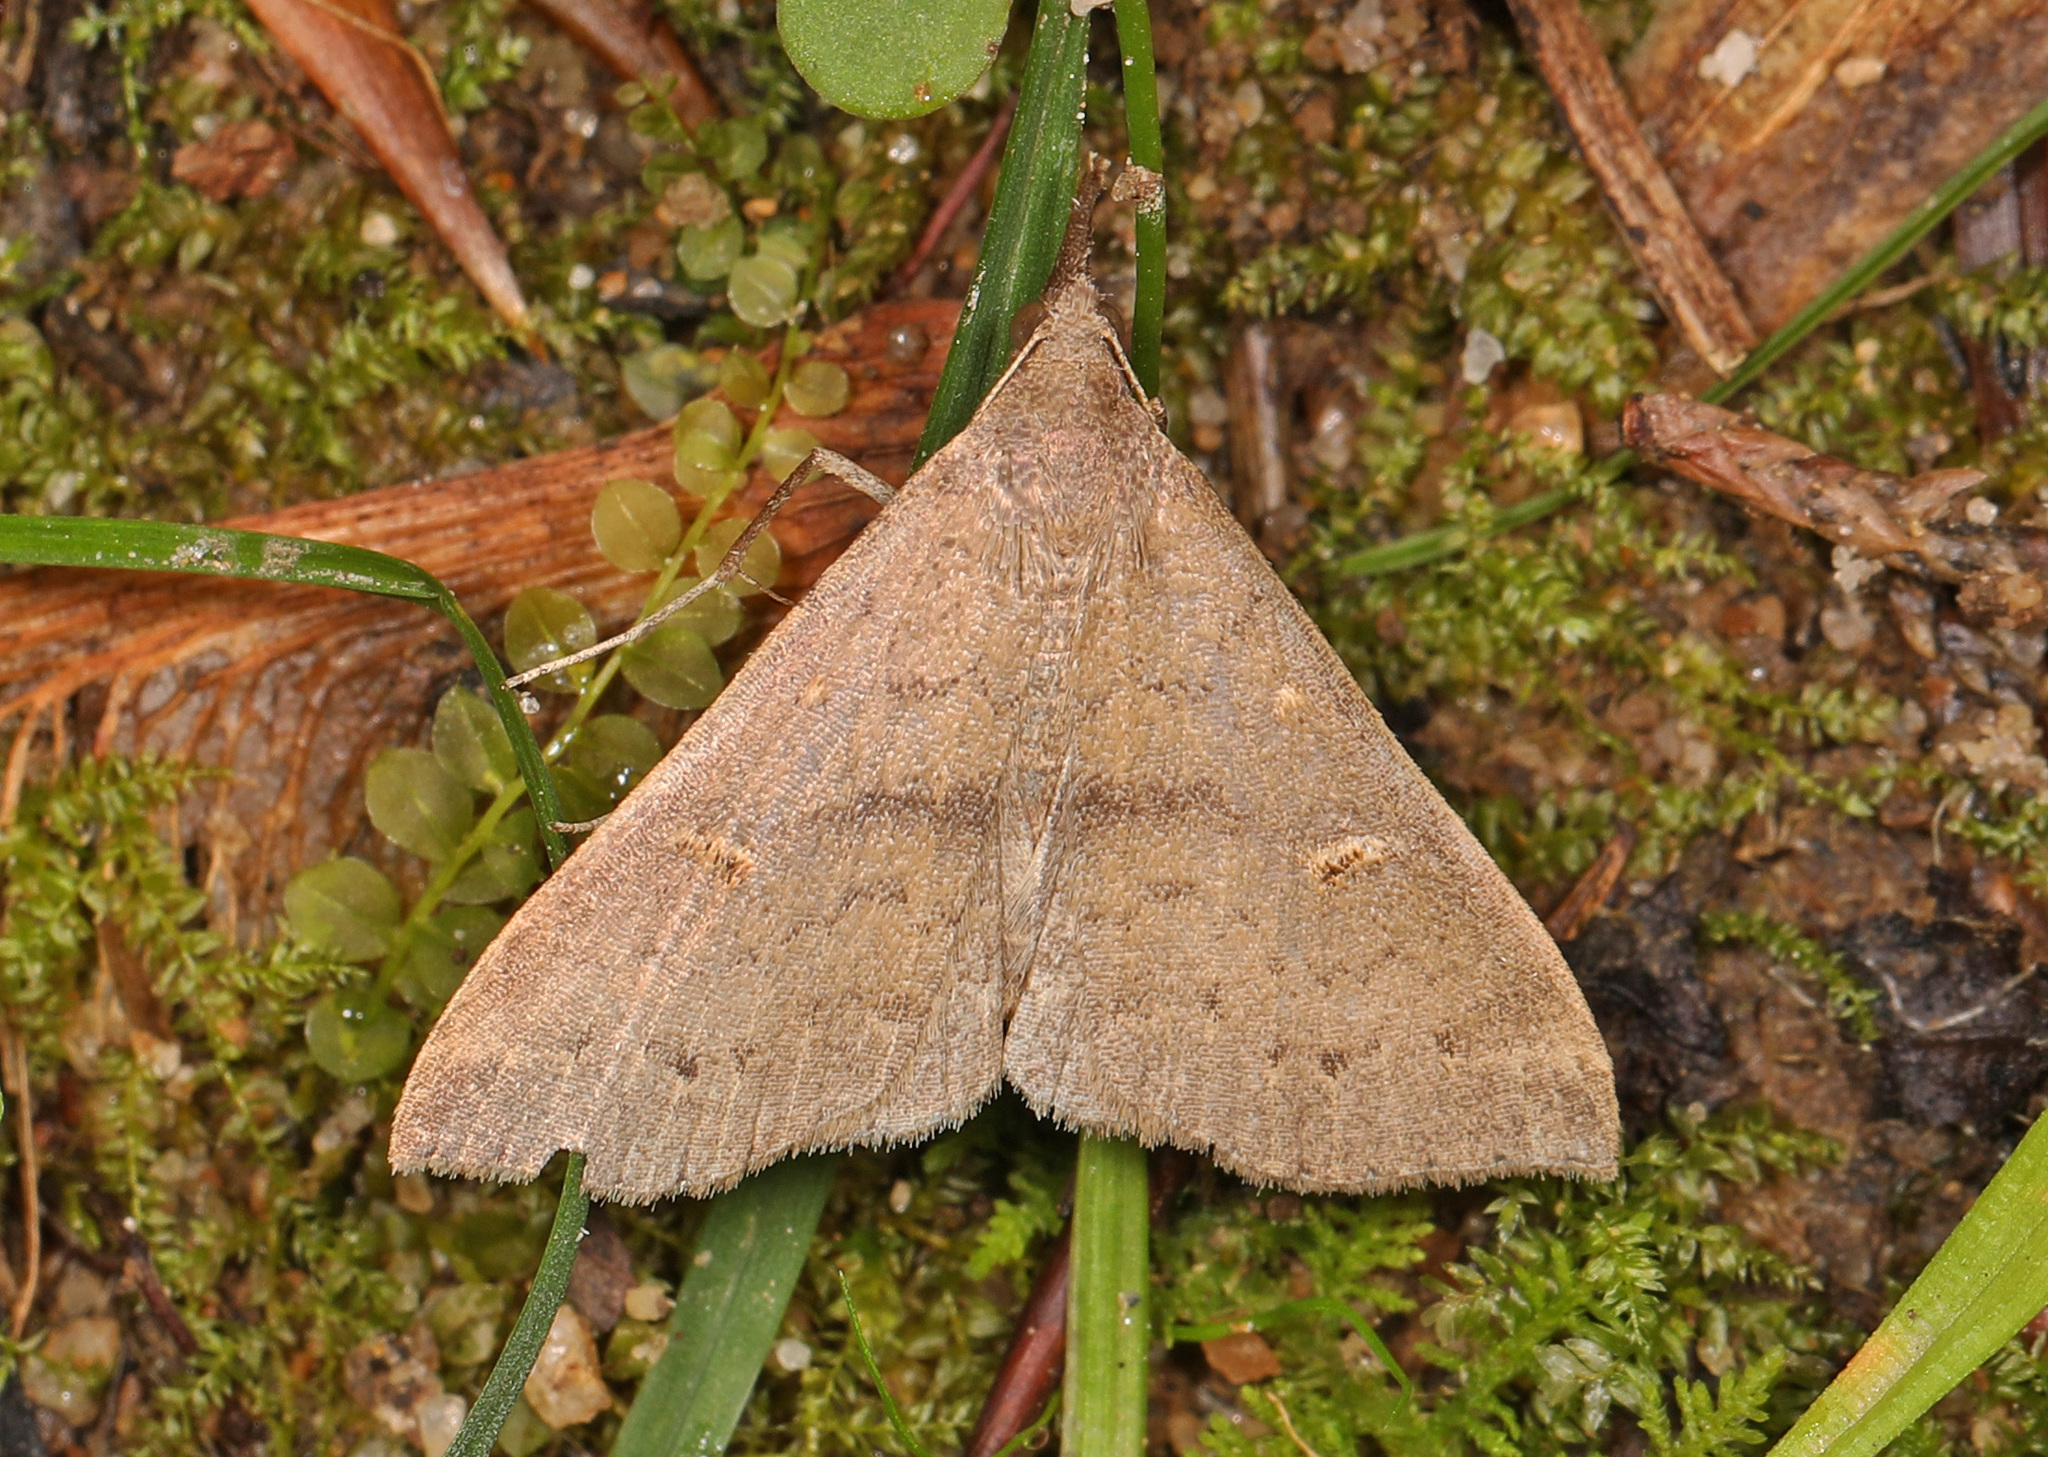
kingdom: Animalia
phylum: Arthropoda
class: Insecta
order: Lepidoptera
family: Erebidae
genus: Renia
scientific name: Renia adspergillus
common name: Speckled renia moth
